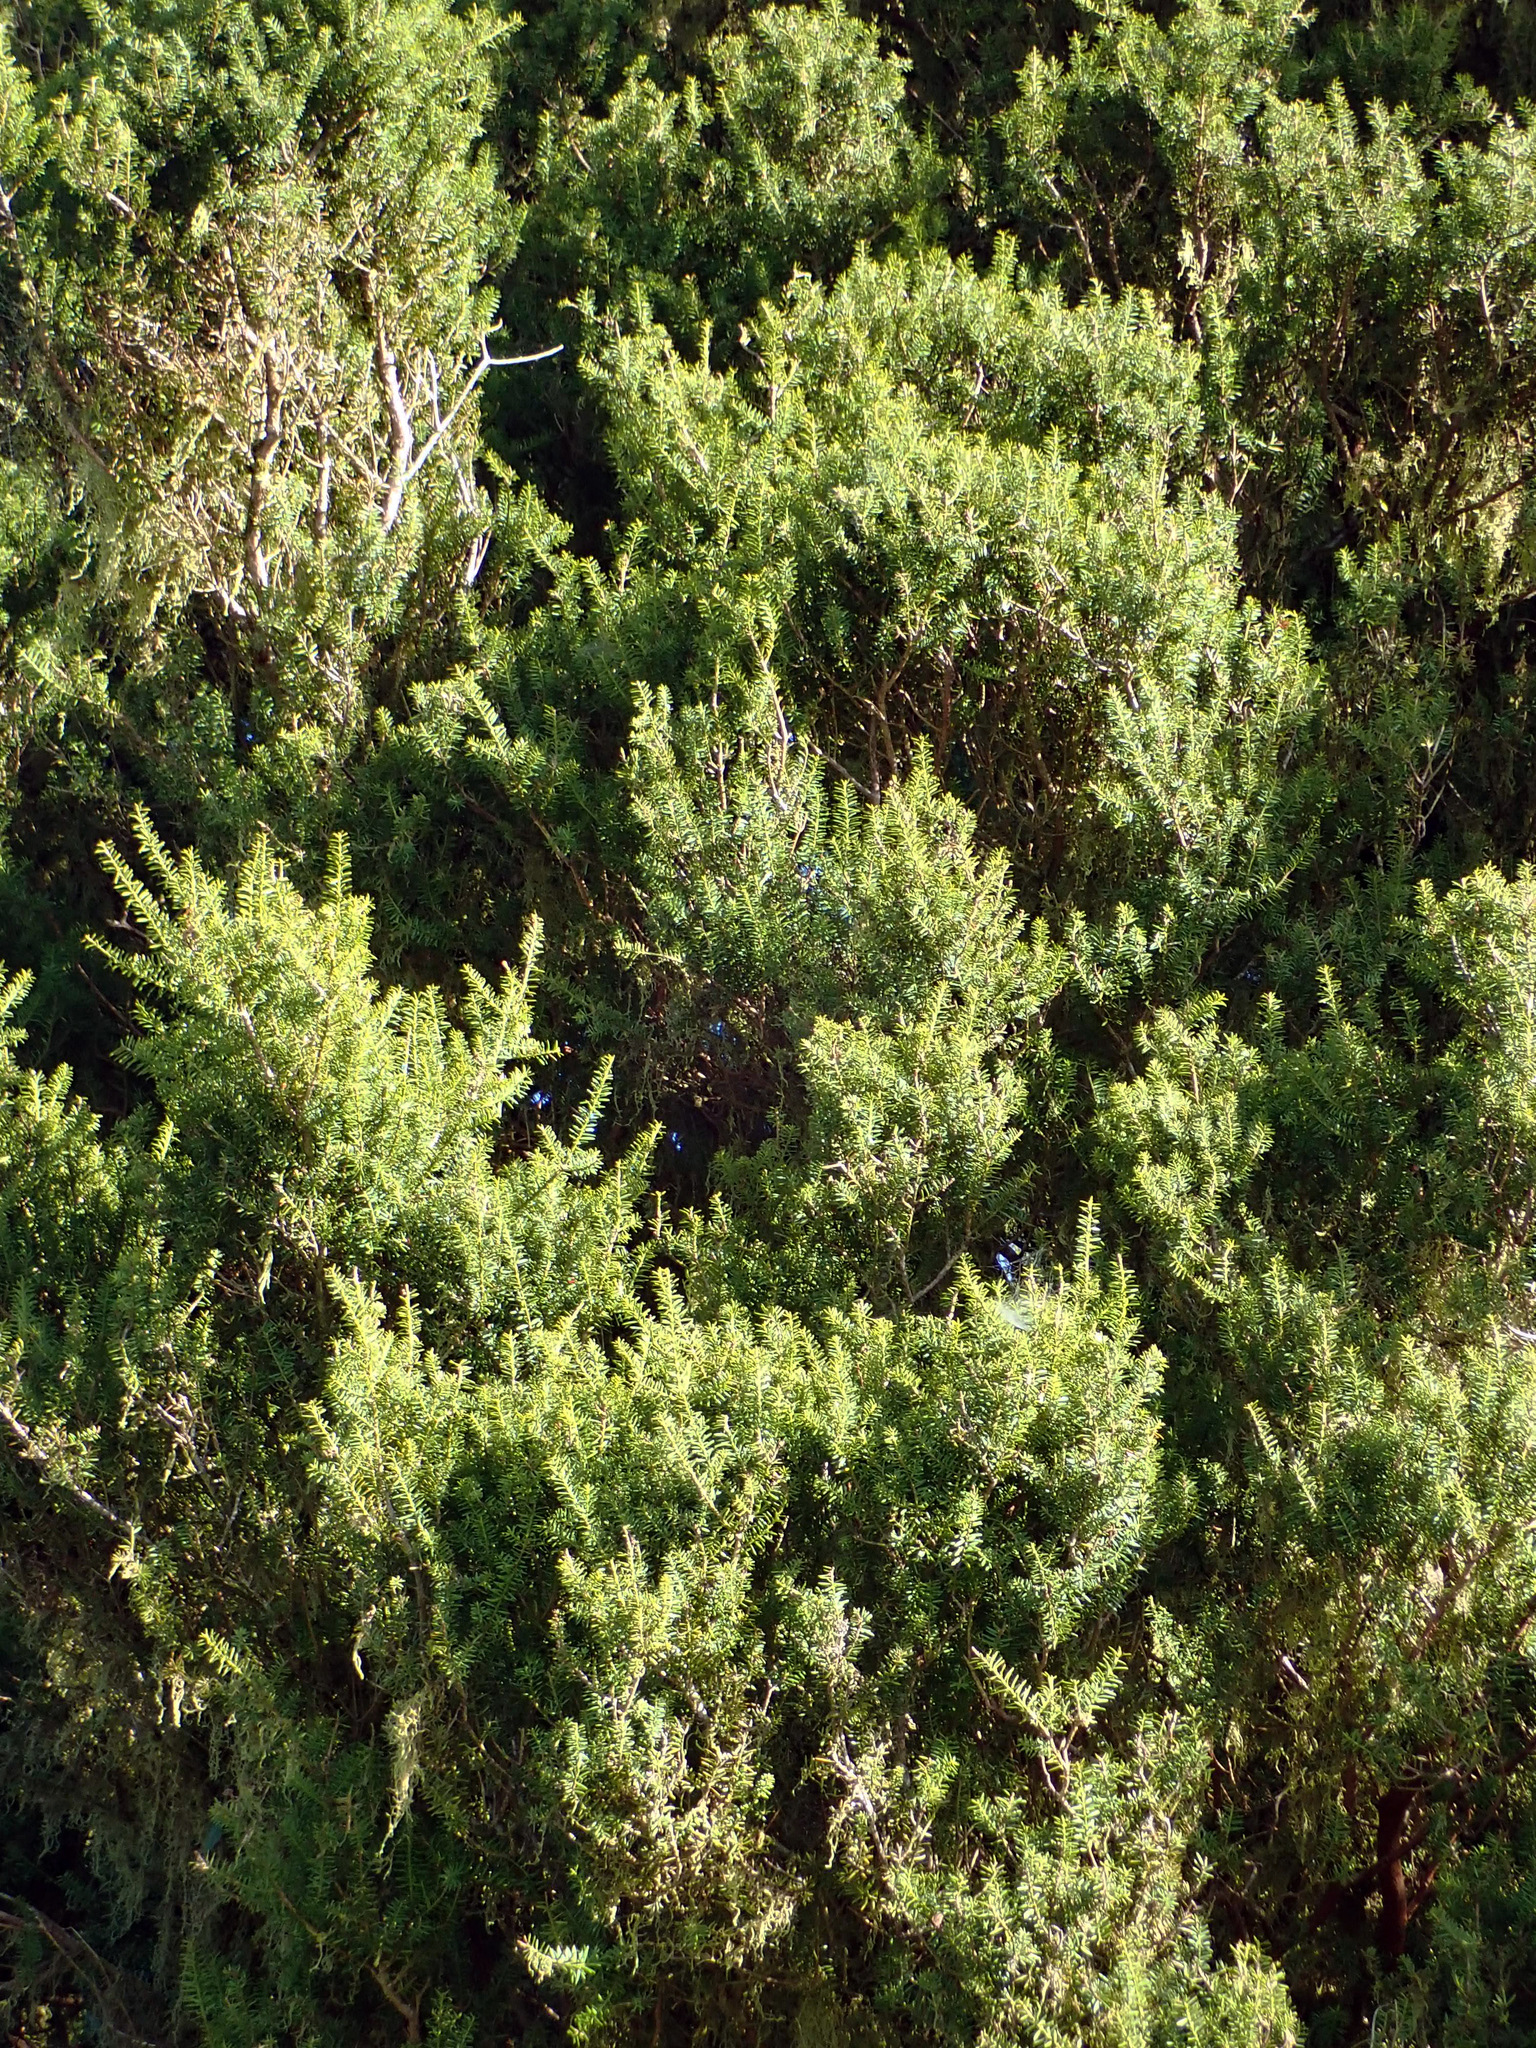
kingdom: Plantae
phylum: Tracheophyta
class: Pinopsida
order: Pinales
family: Podocarpaceae
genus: Podocarpus
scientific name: Podocarpus totara
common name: Totara
